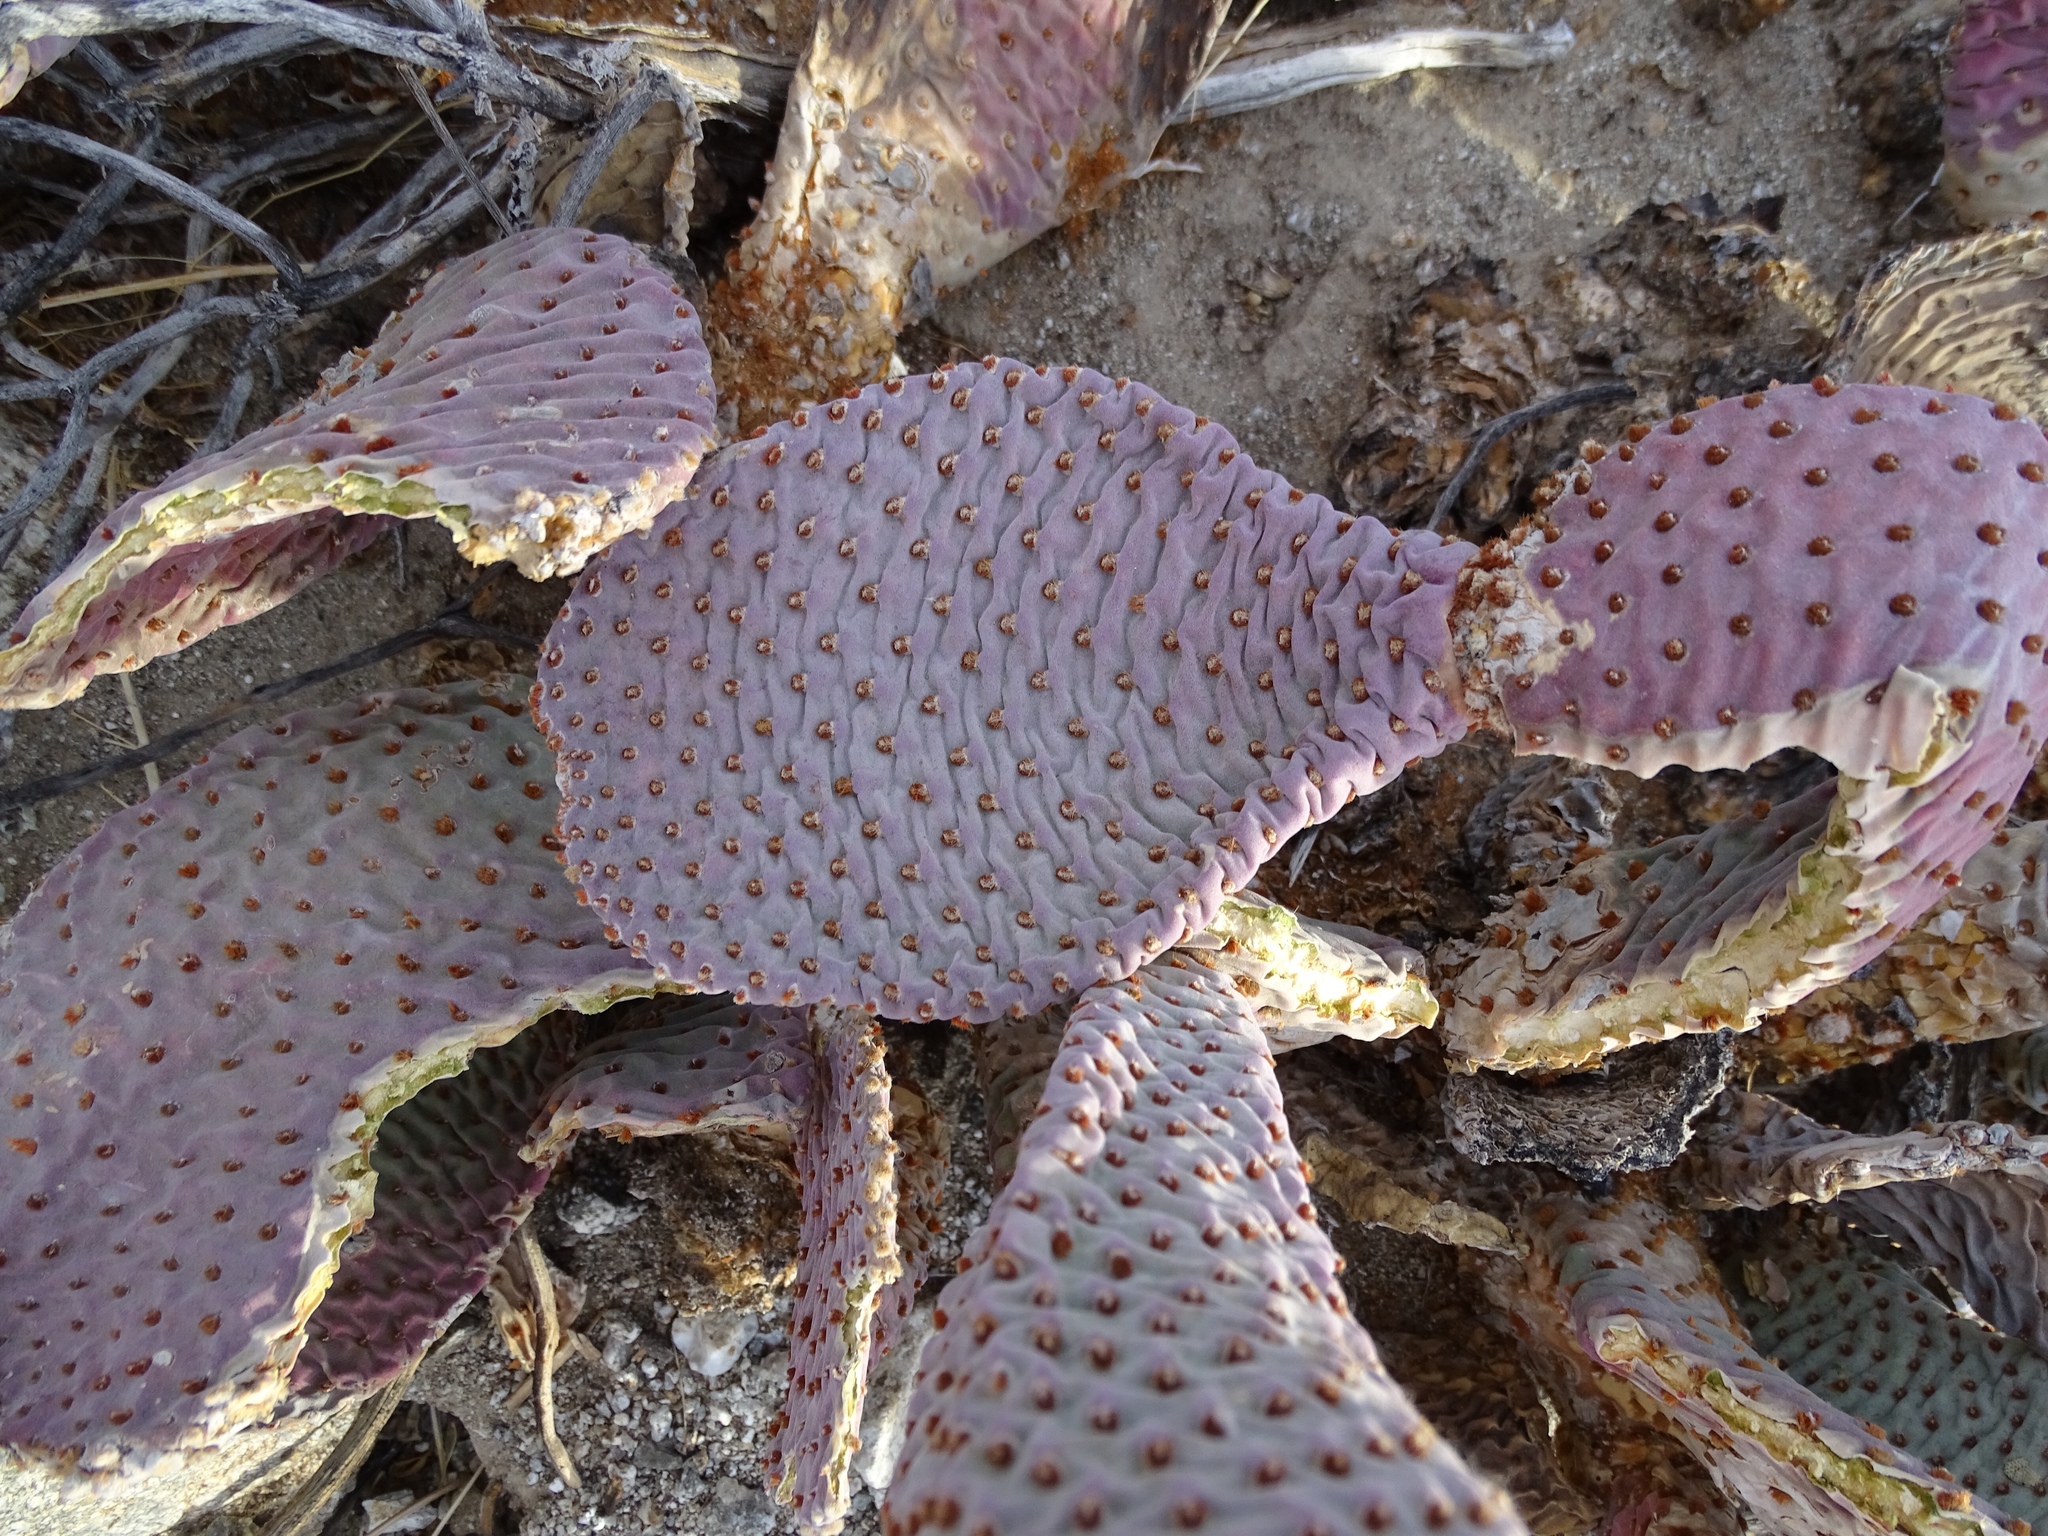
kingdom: Plantae
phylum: Tracheophyta
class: Magnoliopsida
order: Caryophyllales
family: Cactaceae
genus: Opuntia
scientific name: Opuntia basilaris
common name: Beavertail prickly-pear
